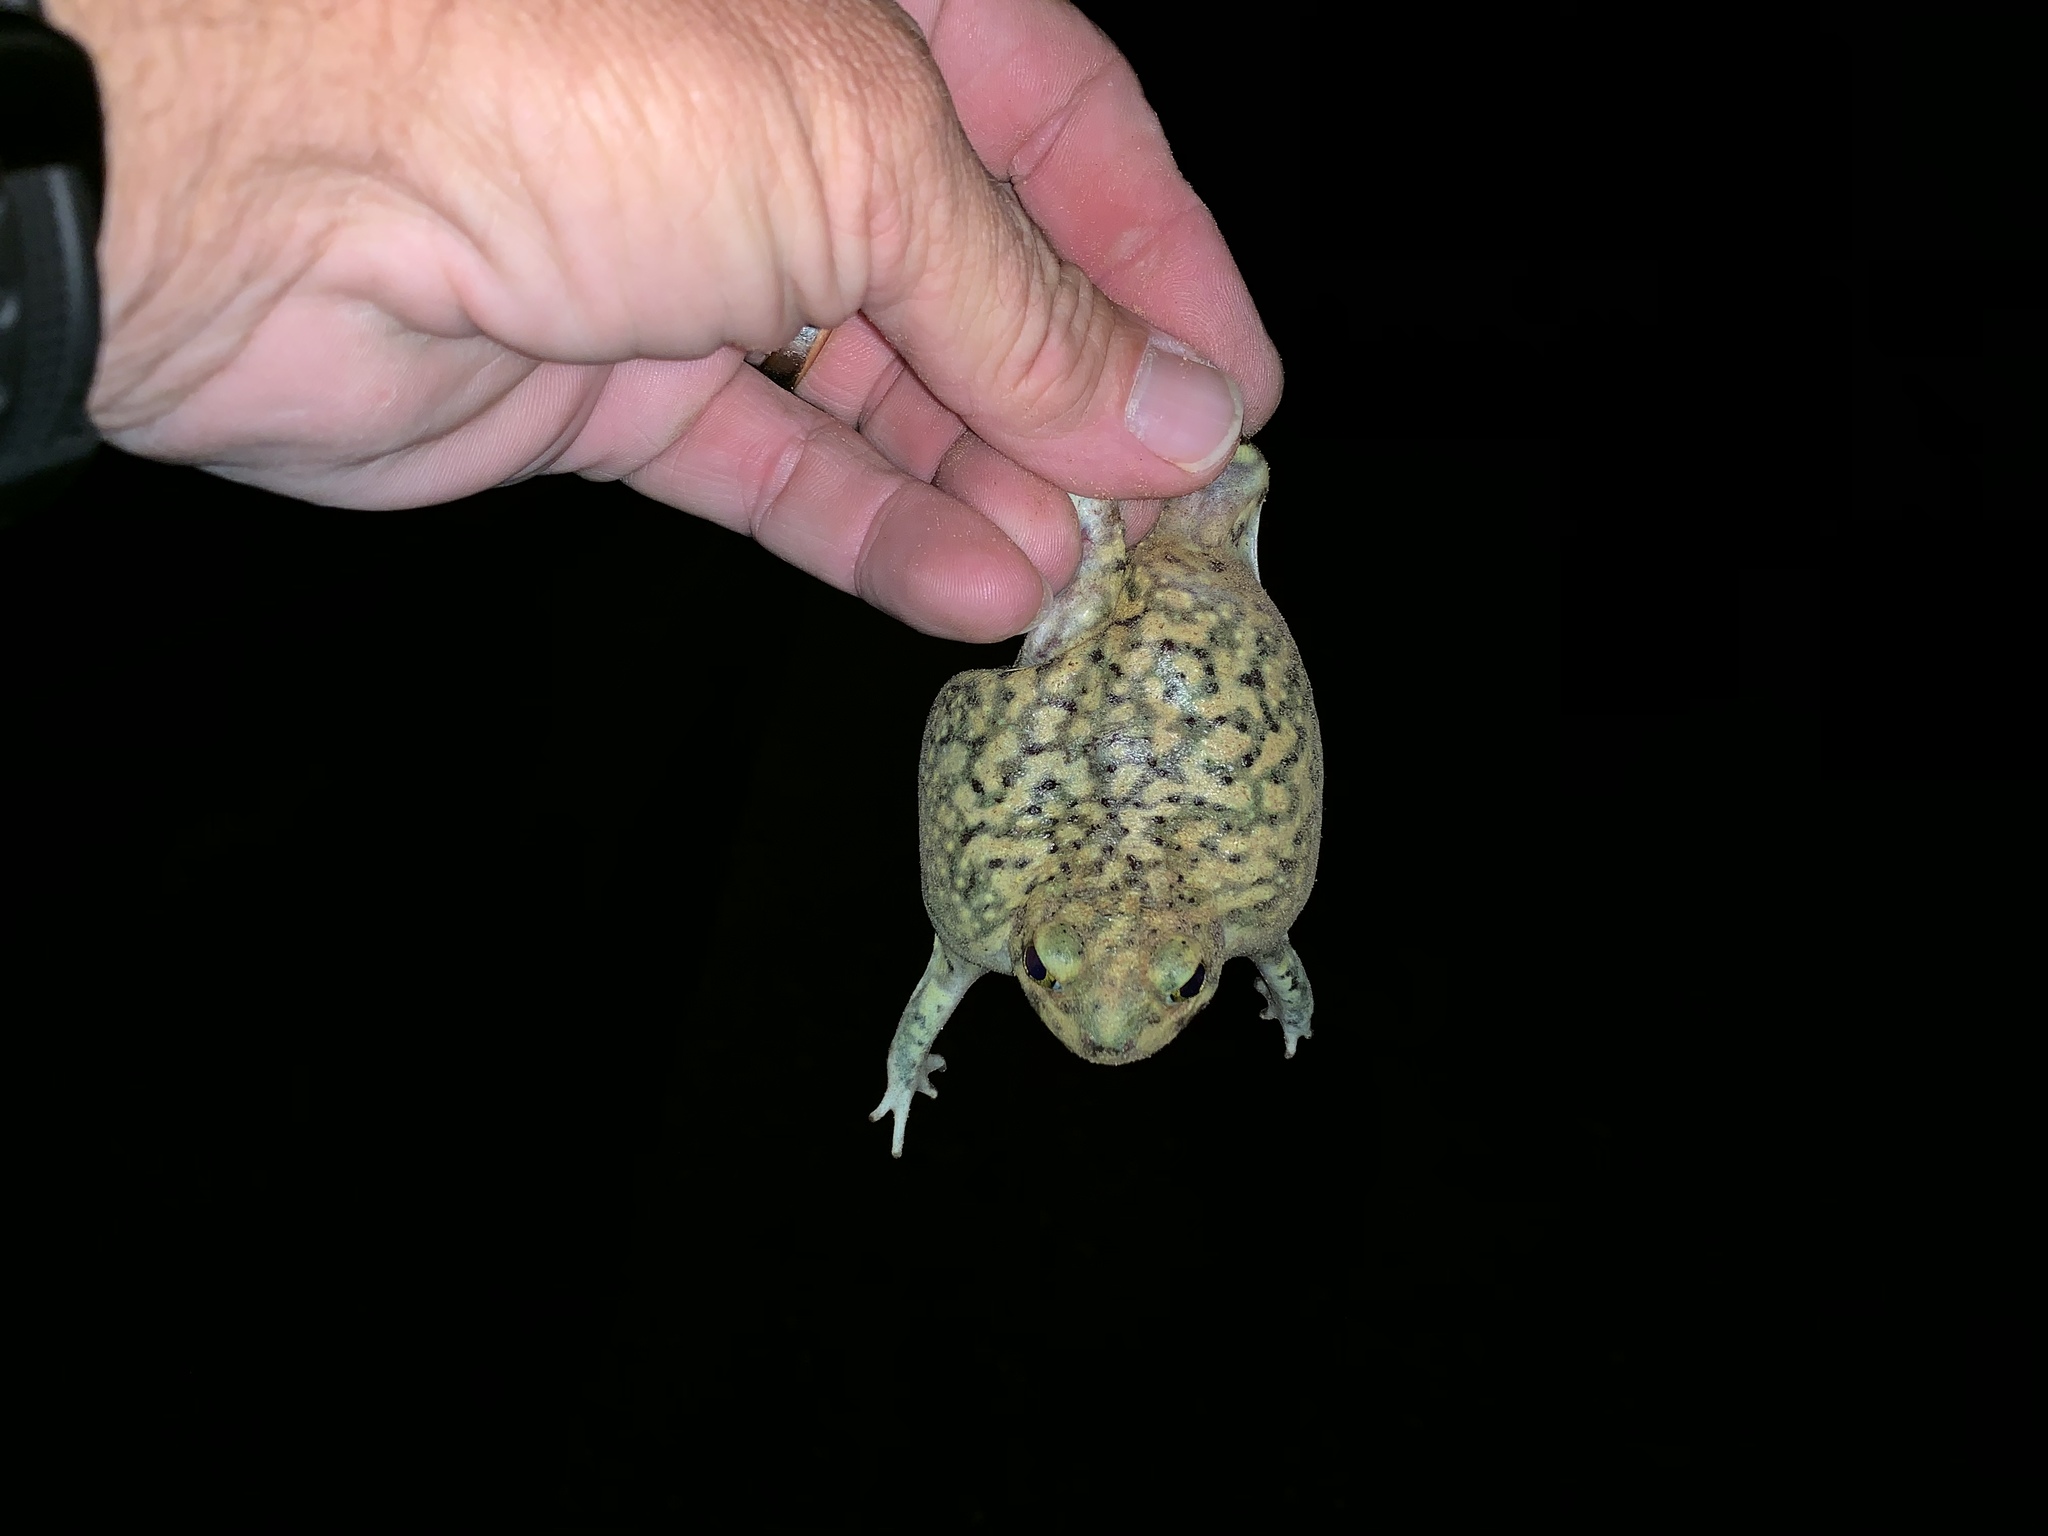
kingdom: Animalia
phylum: Chordata
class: Amphibia
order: Anura
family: Scaphiopodidae
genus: Scaphiopus
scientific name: Scaphiopus couchii
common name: Couch's spadefoot toad
